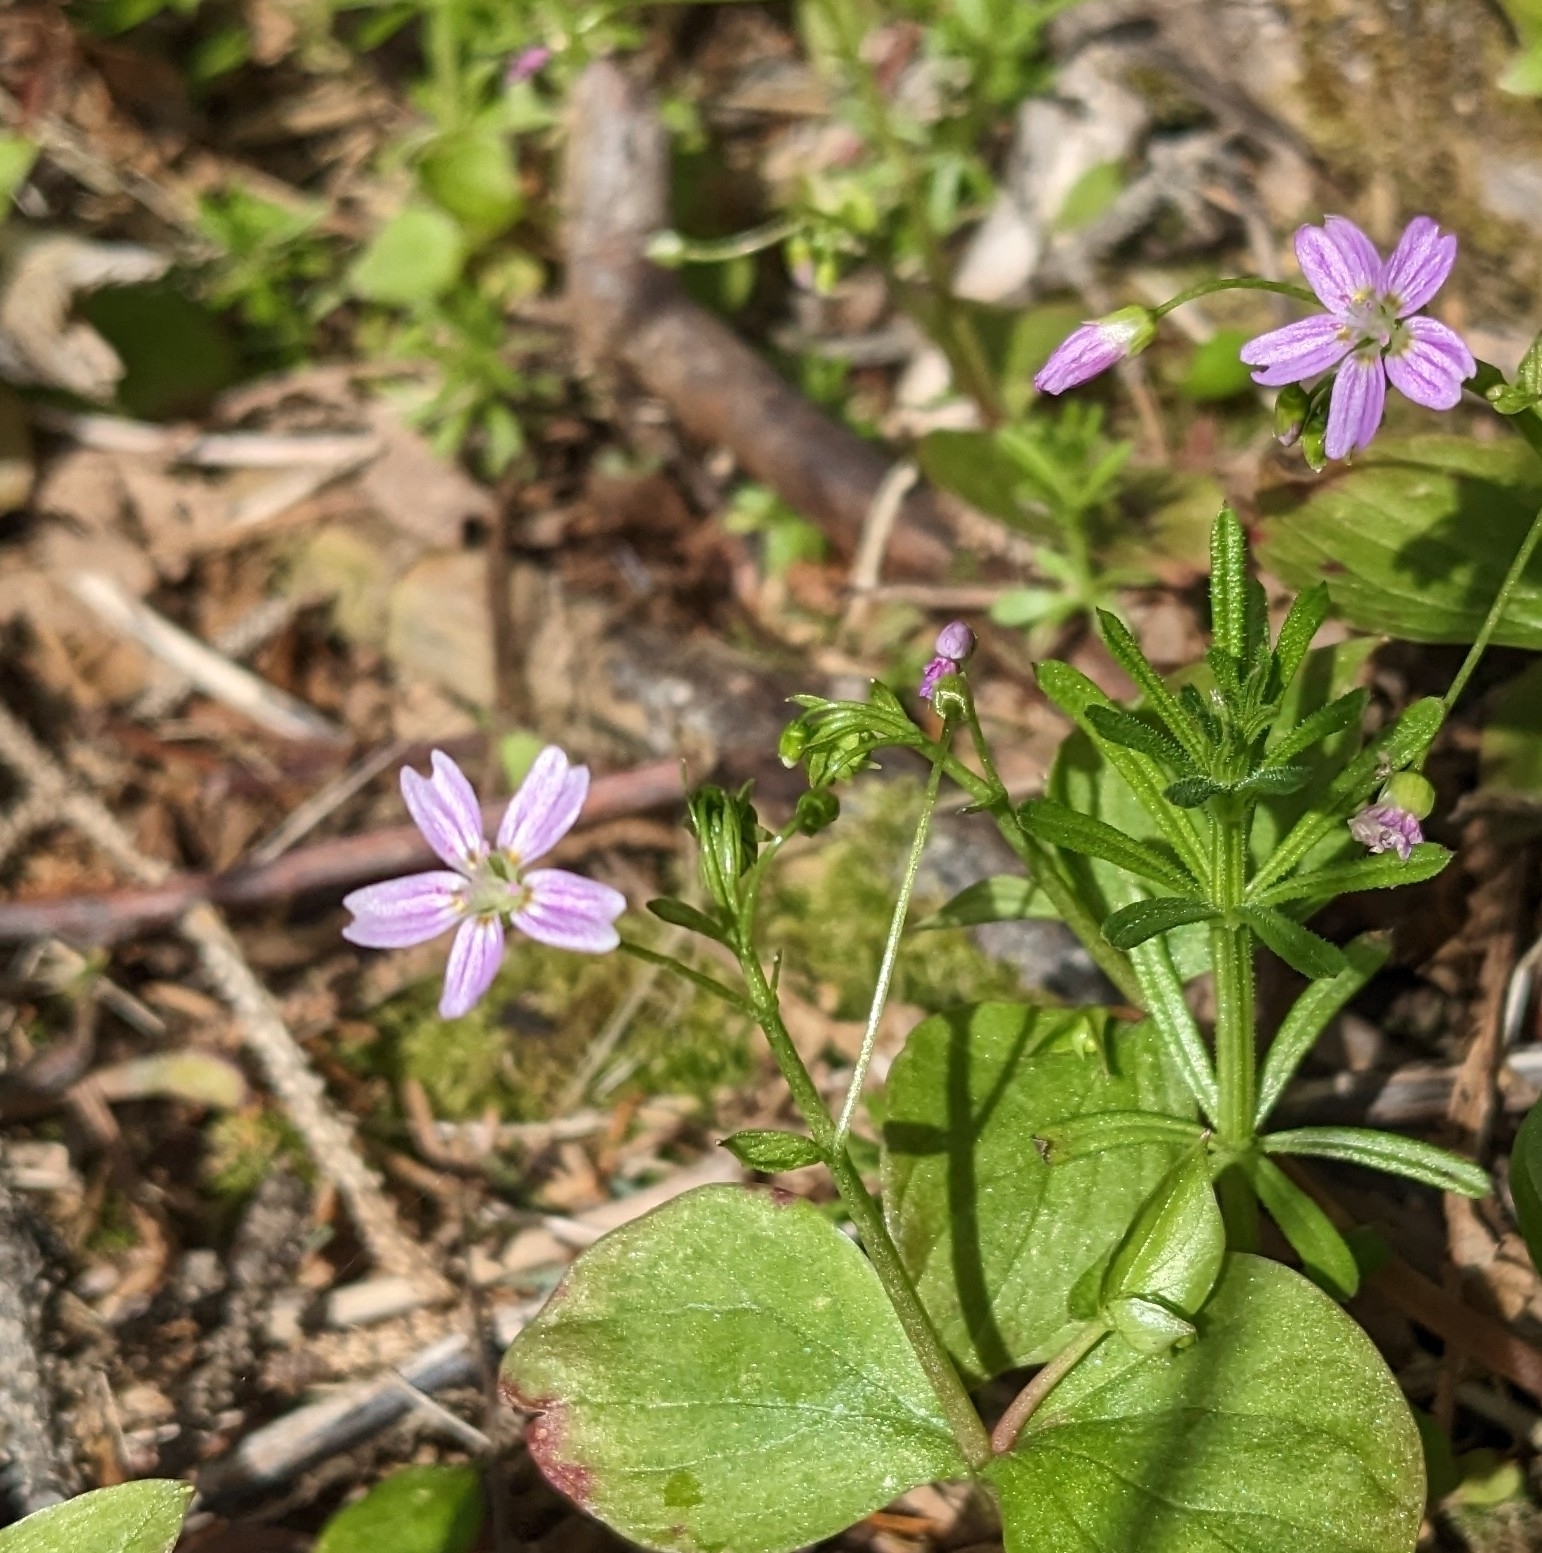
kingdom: Plantae
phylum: Tracheophyta
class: Magnoliopsida
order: Caryophyllales
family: Montiaceae
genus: Claytonia
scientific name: Claytonia sibirica
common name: Pink purslane
